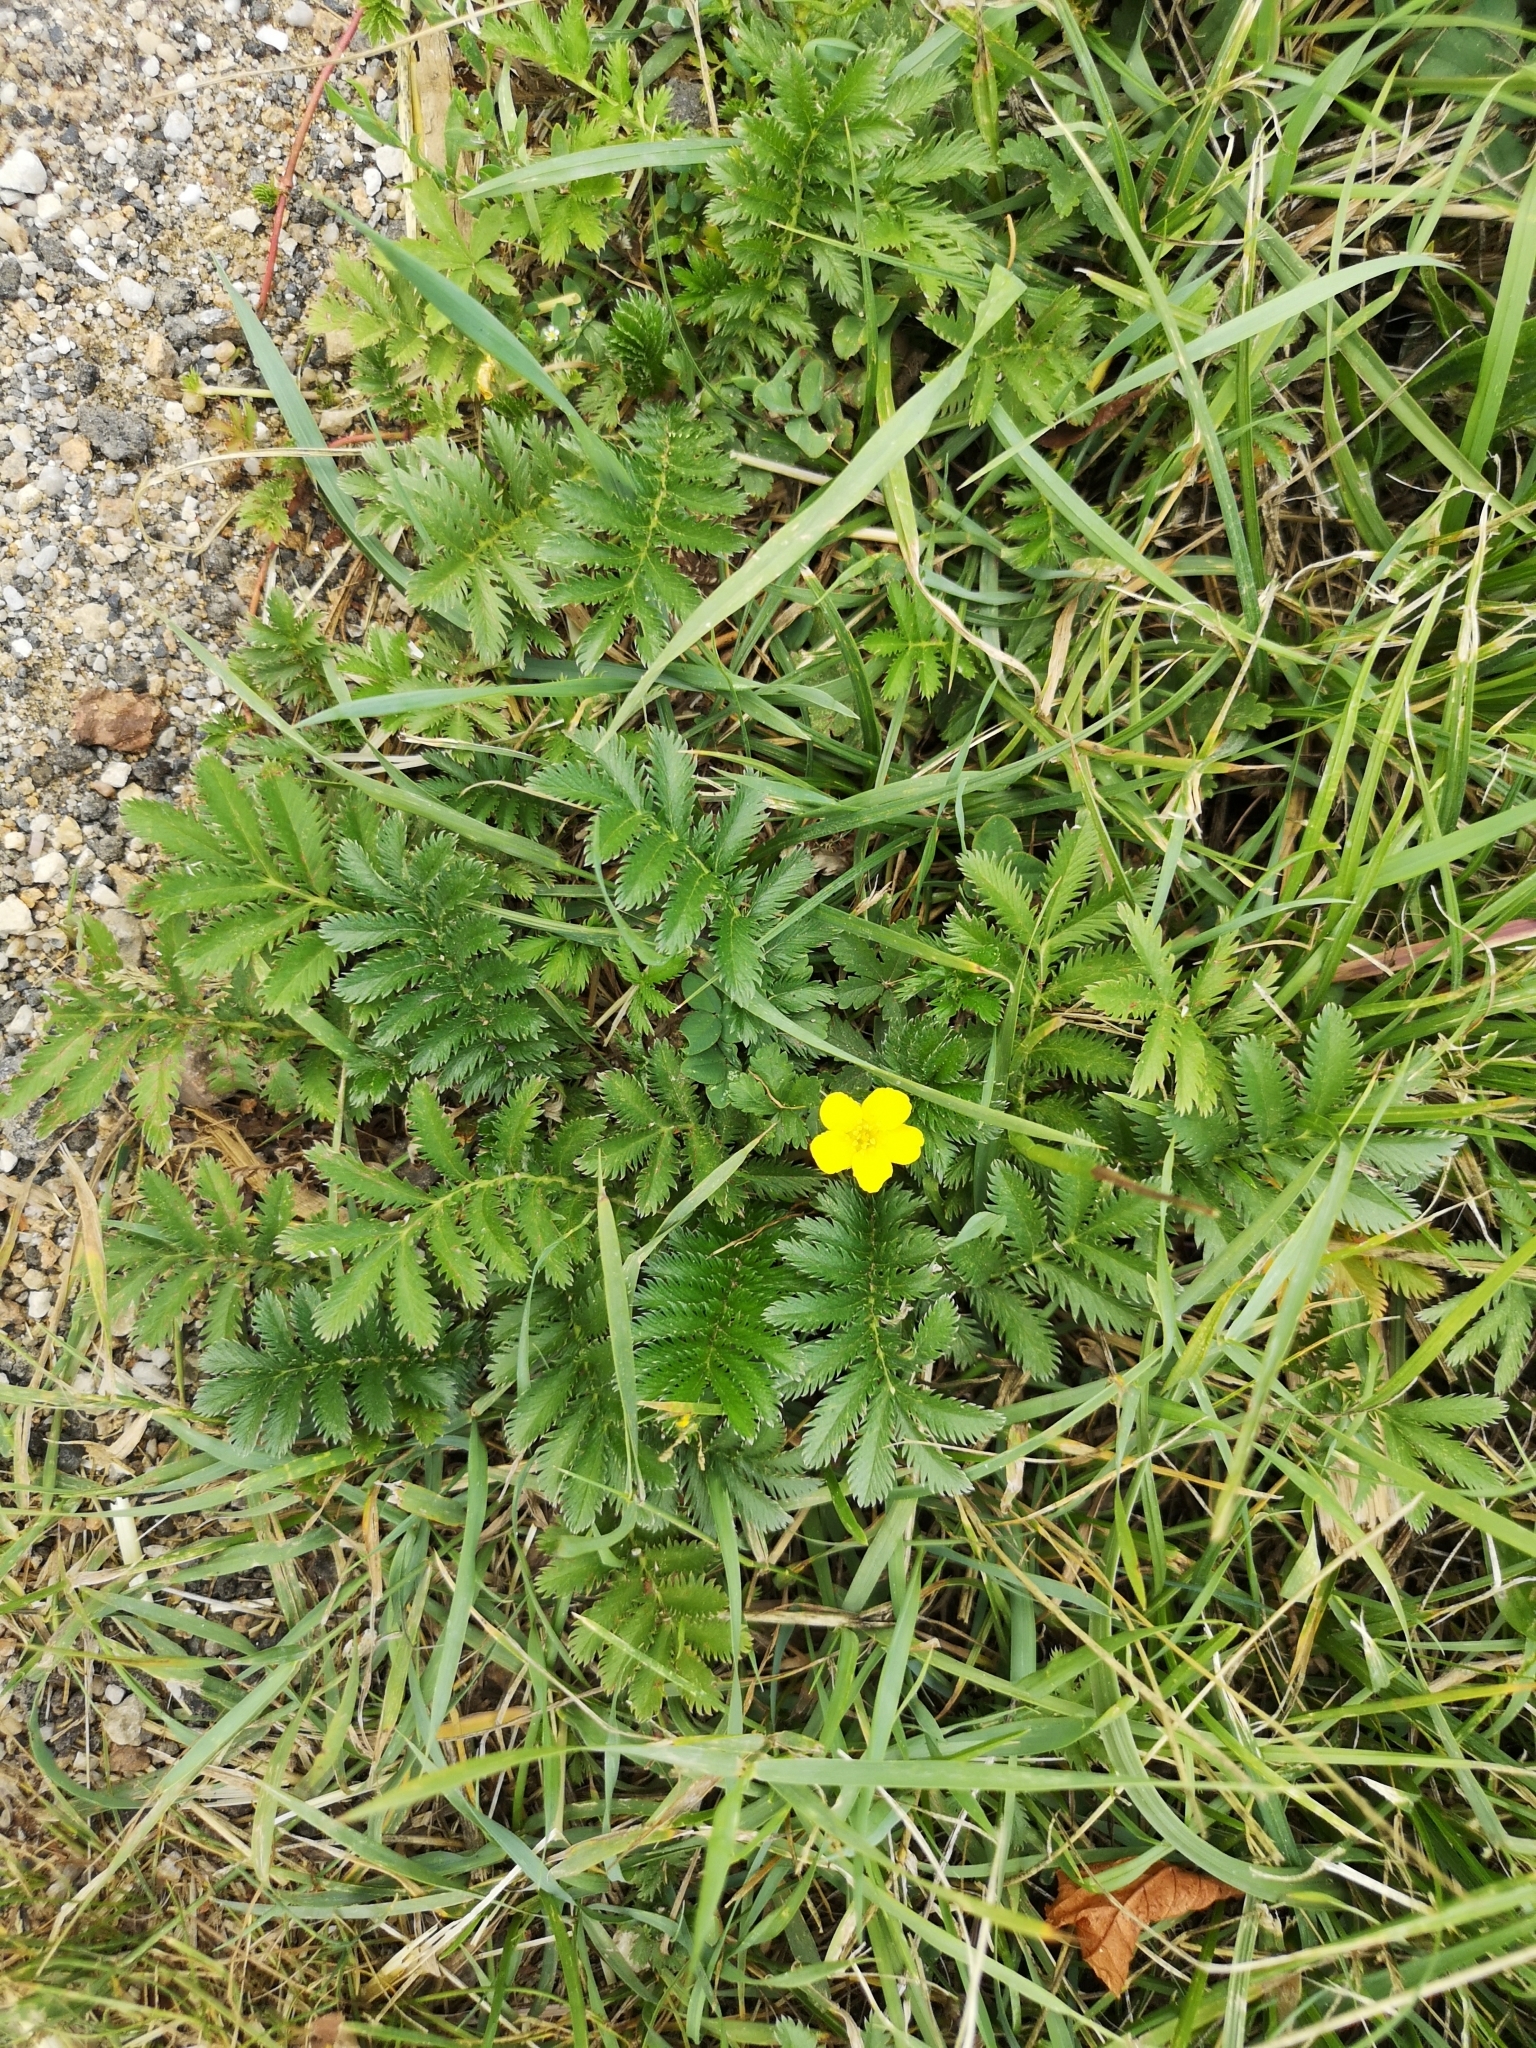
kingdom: Plantae
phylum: Tracheophyta
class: Magnoliopsida
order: Rosales
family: Rosaceae
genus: Argentina
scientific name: Argentina anserina
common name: Common silverweed
